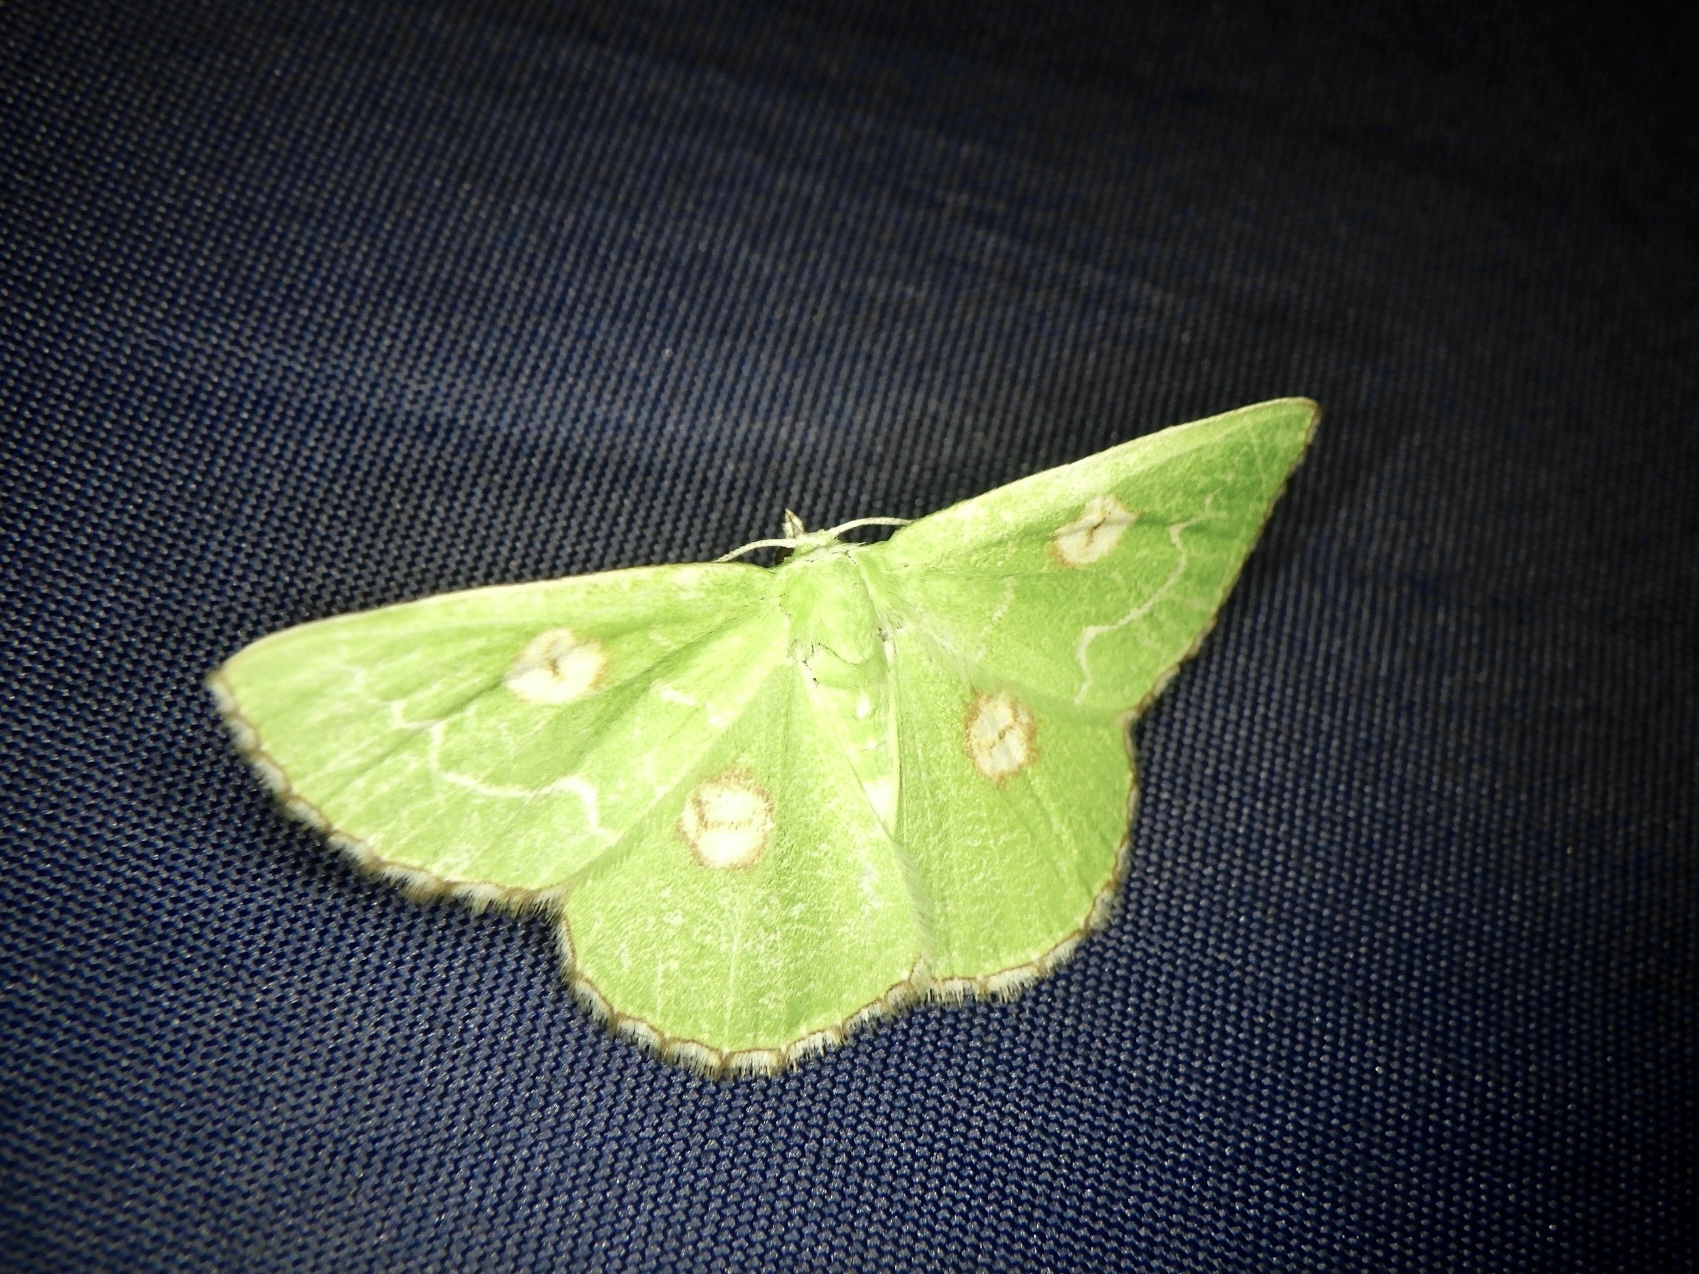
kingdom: Animalia
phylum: Arthropoda
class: Insecta
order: Lepidoptera
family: Geometridae
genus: Thetidia
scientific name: Thetidia albocostaria
